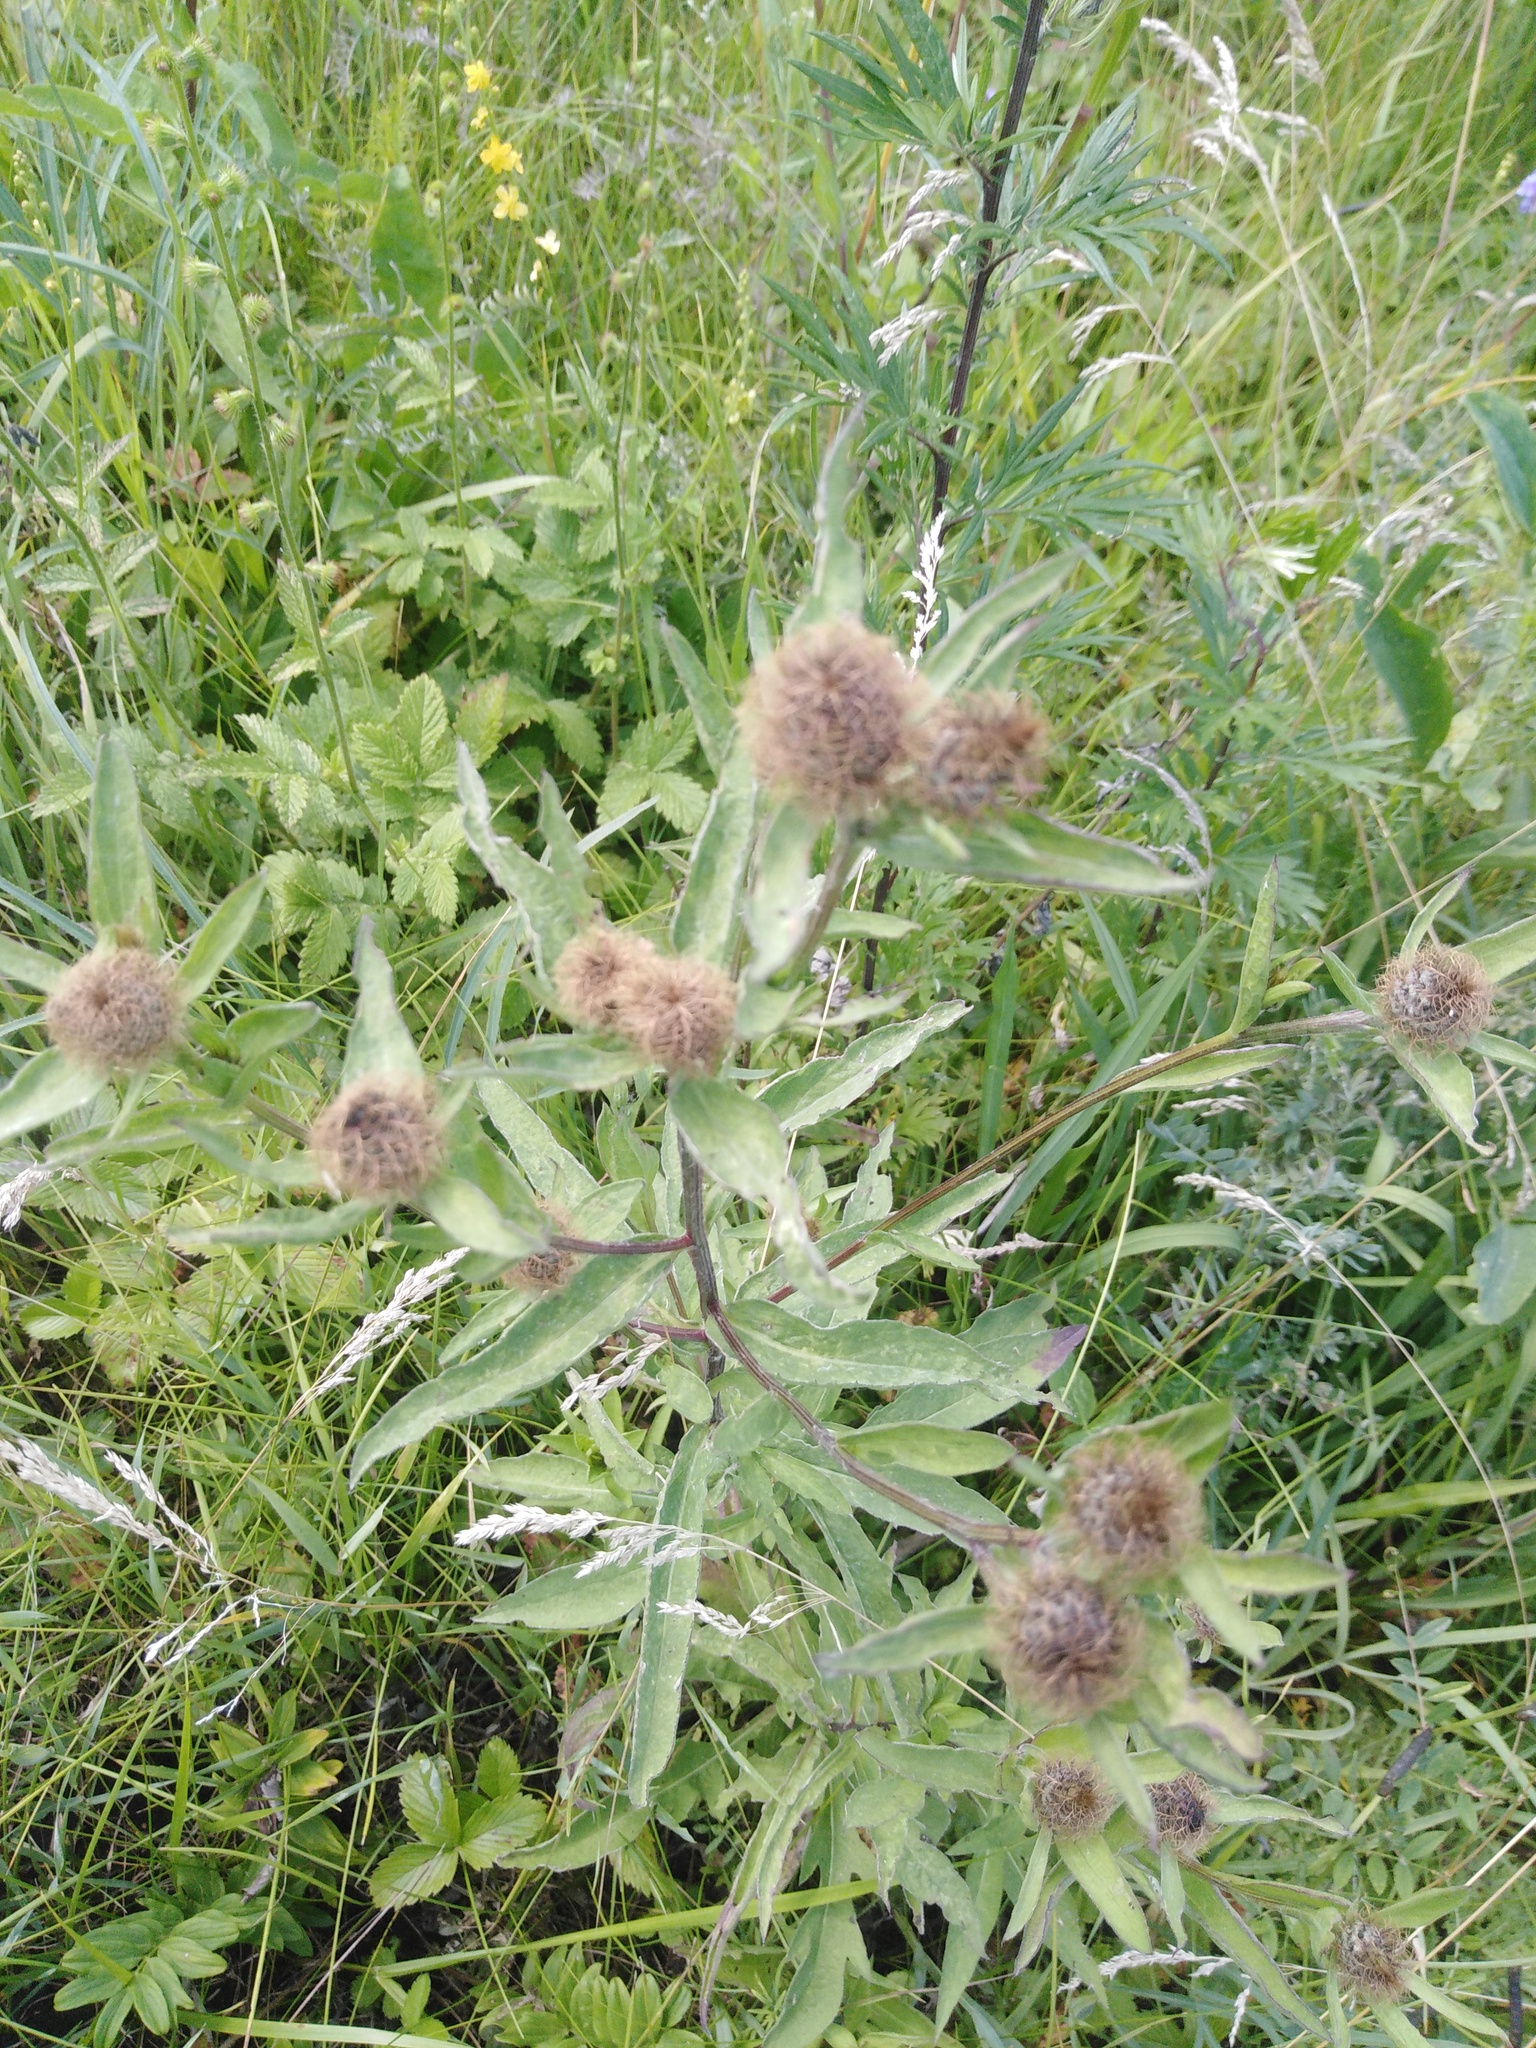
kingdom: Plantae
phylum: Tracheophyta
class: Magnoliopsida
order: Asterales
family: Asteraceae
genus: Centaurea
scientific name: Centaurea pseudophrygia
